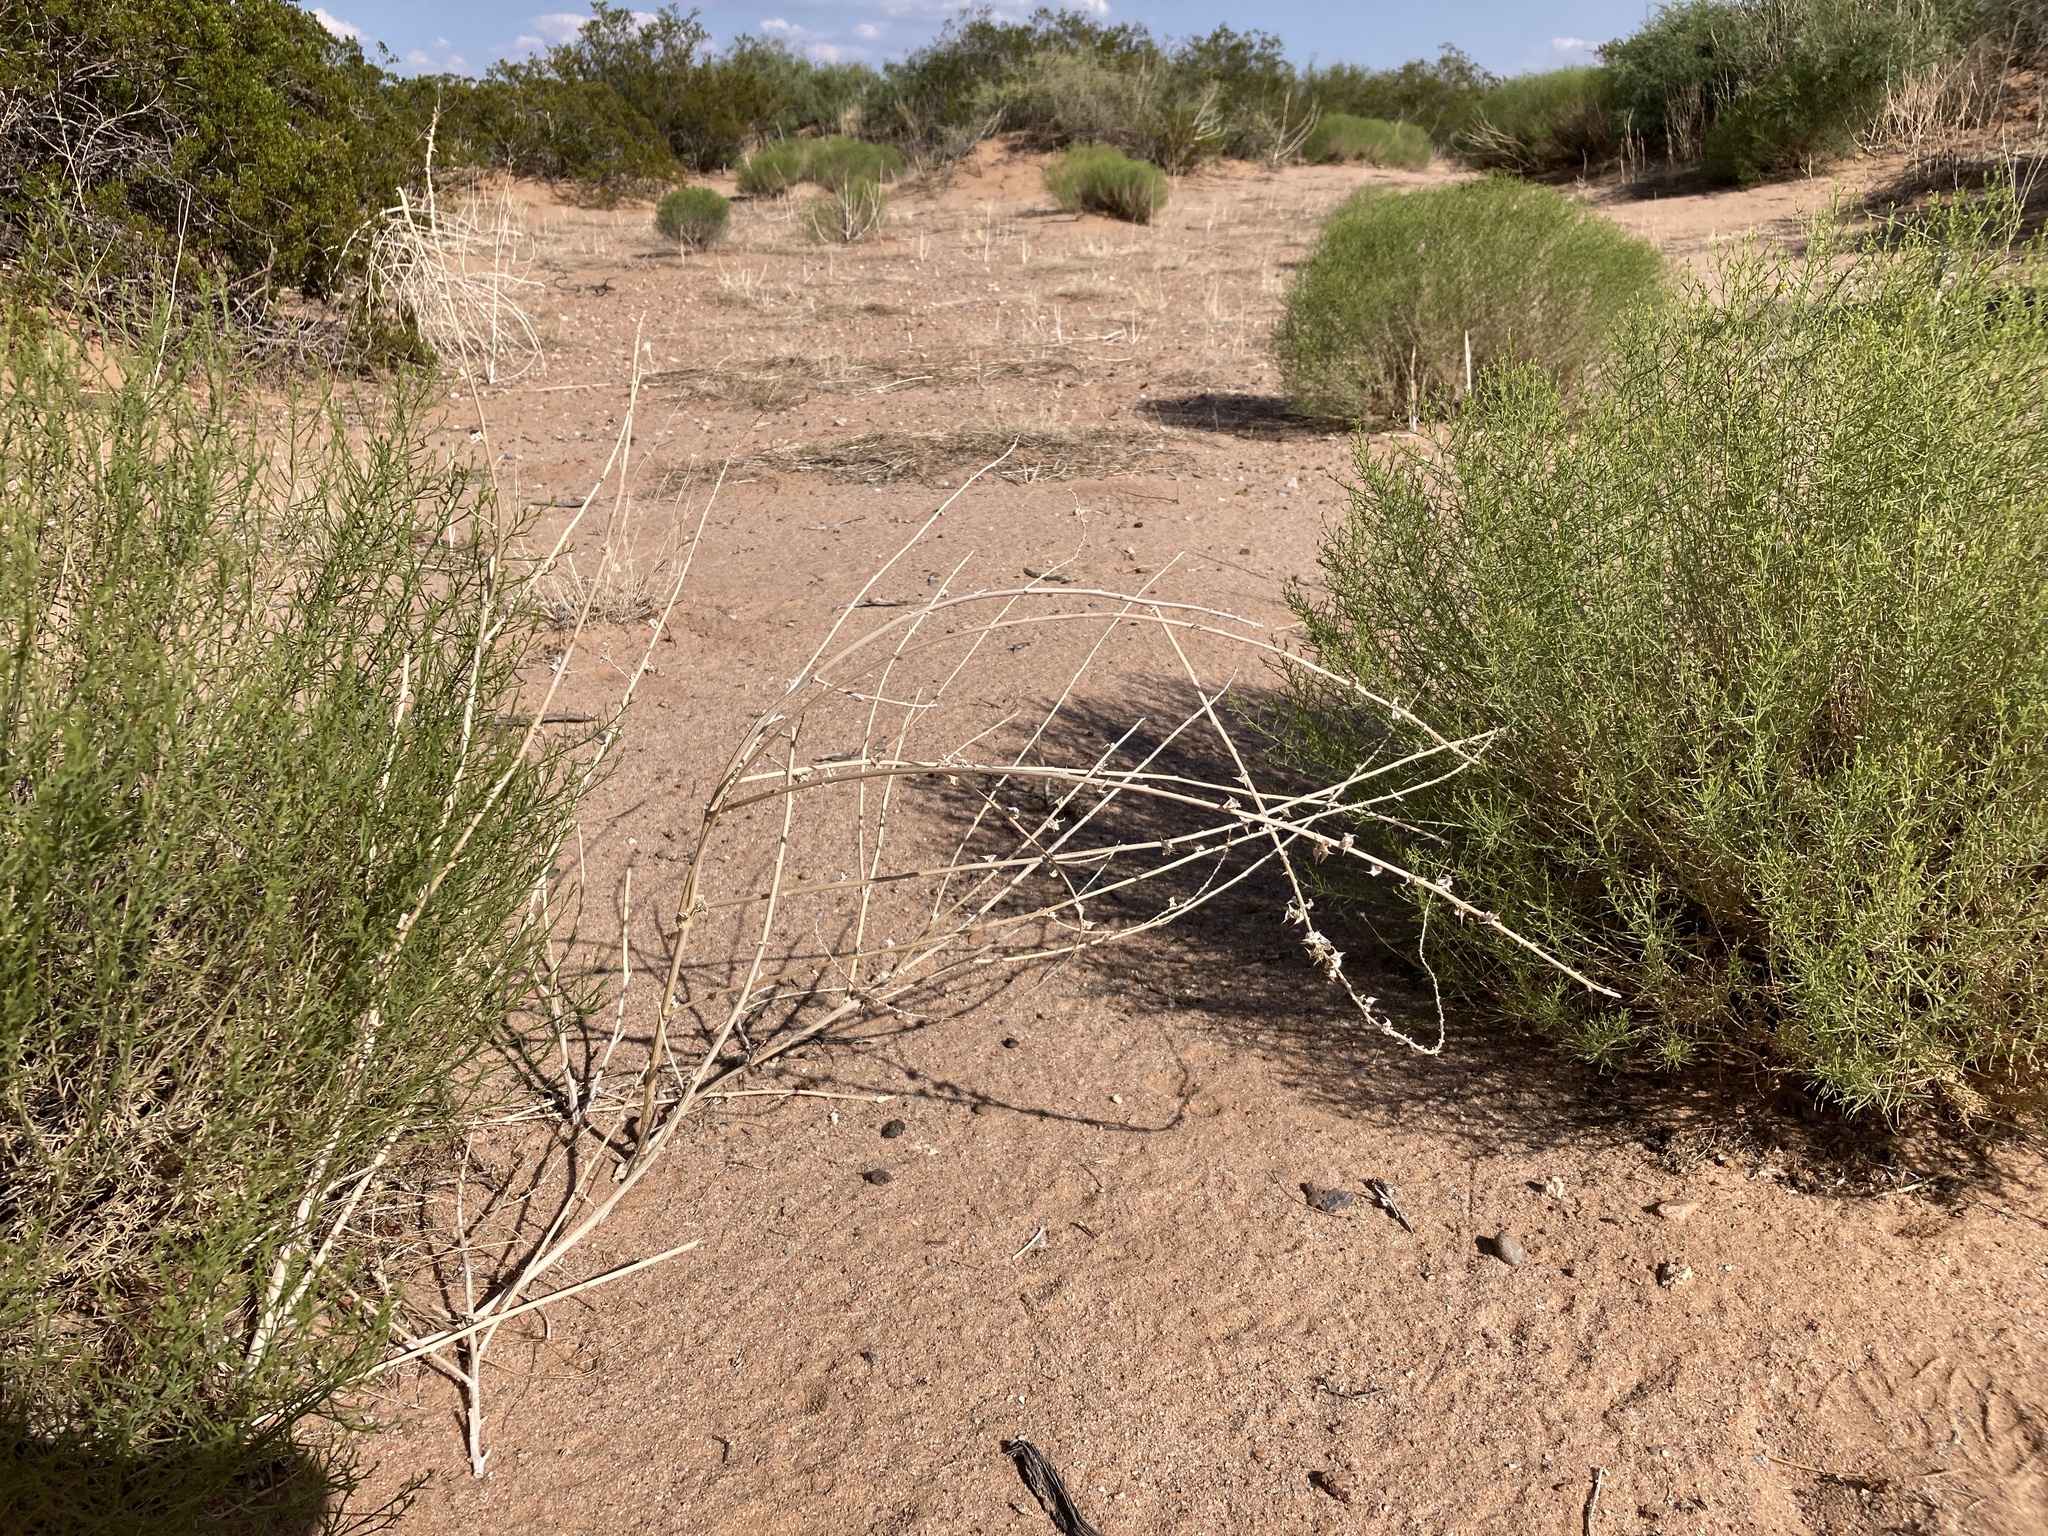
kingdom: Plantae
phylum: Tracheophyta
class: Magnoliopsida
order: Caryophyllales
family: Amaranthaceae
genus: Amaranthus
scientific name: Amaranthus acanthochiton
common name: Greenstripe
